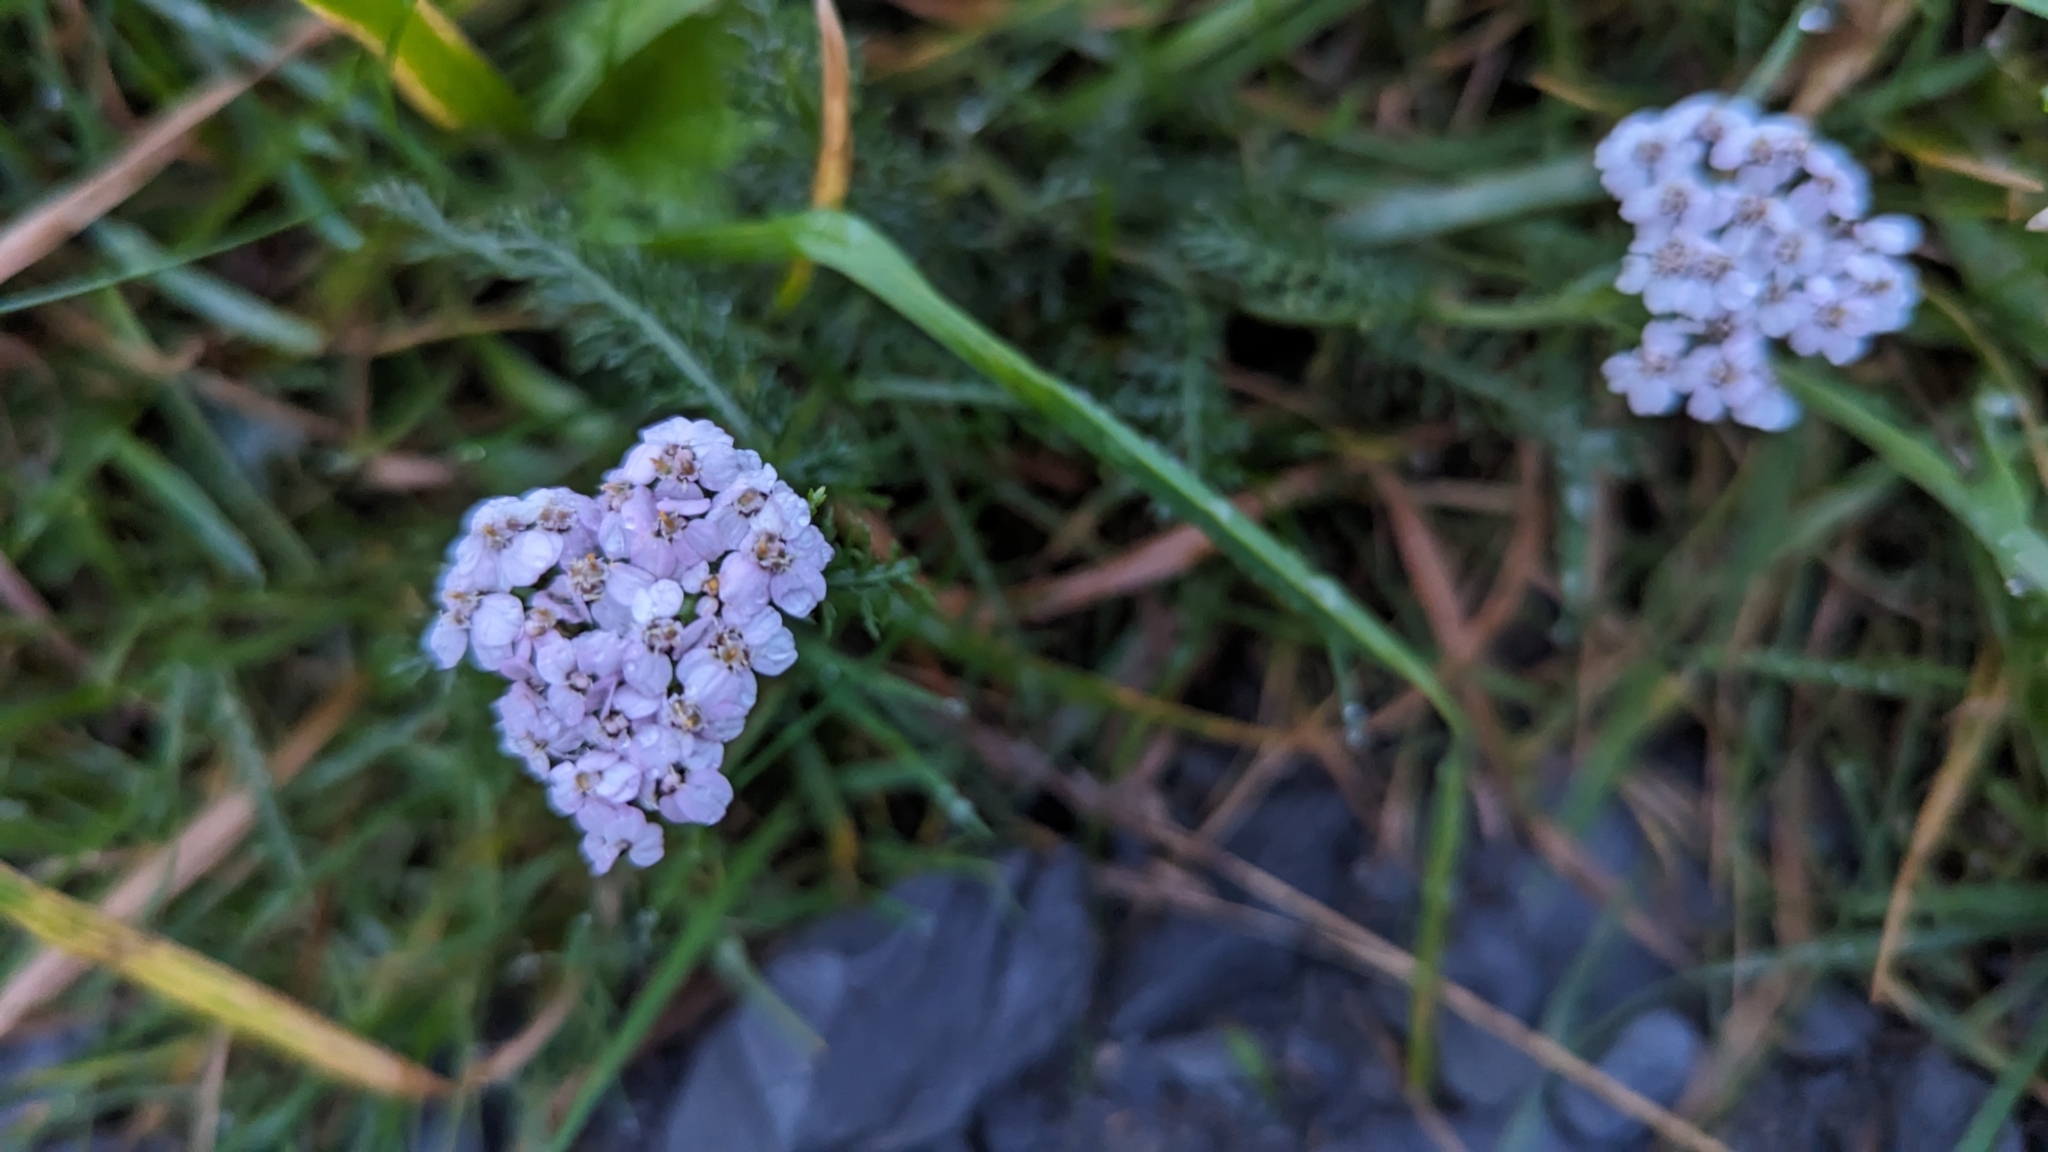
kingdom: Plantae
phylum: Tracheophyta
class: Magnoliopsida
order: Asterales
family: Asteraceae
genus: Achillea
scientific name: Achillea millefolium
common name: Yarrow
